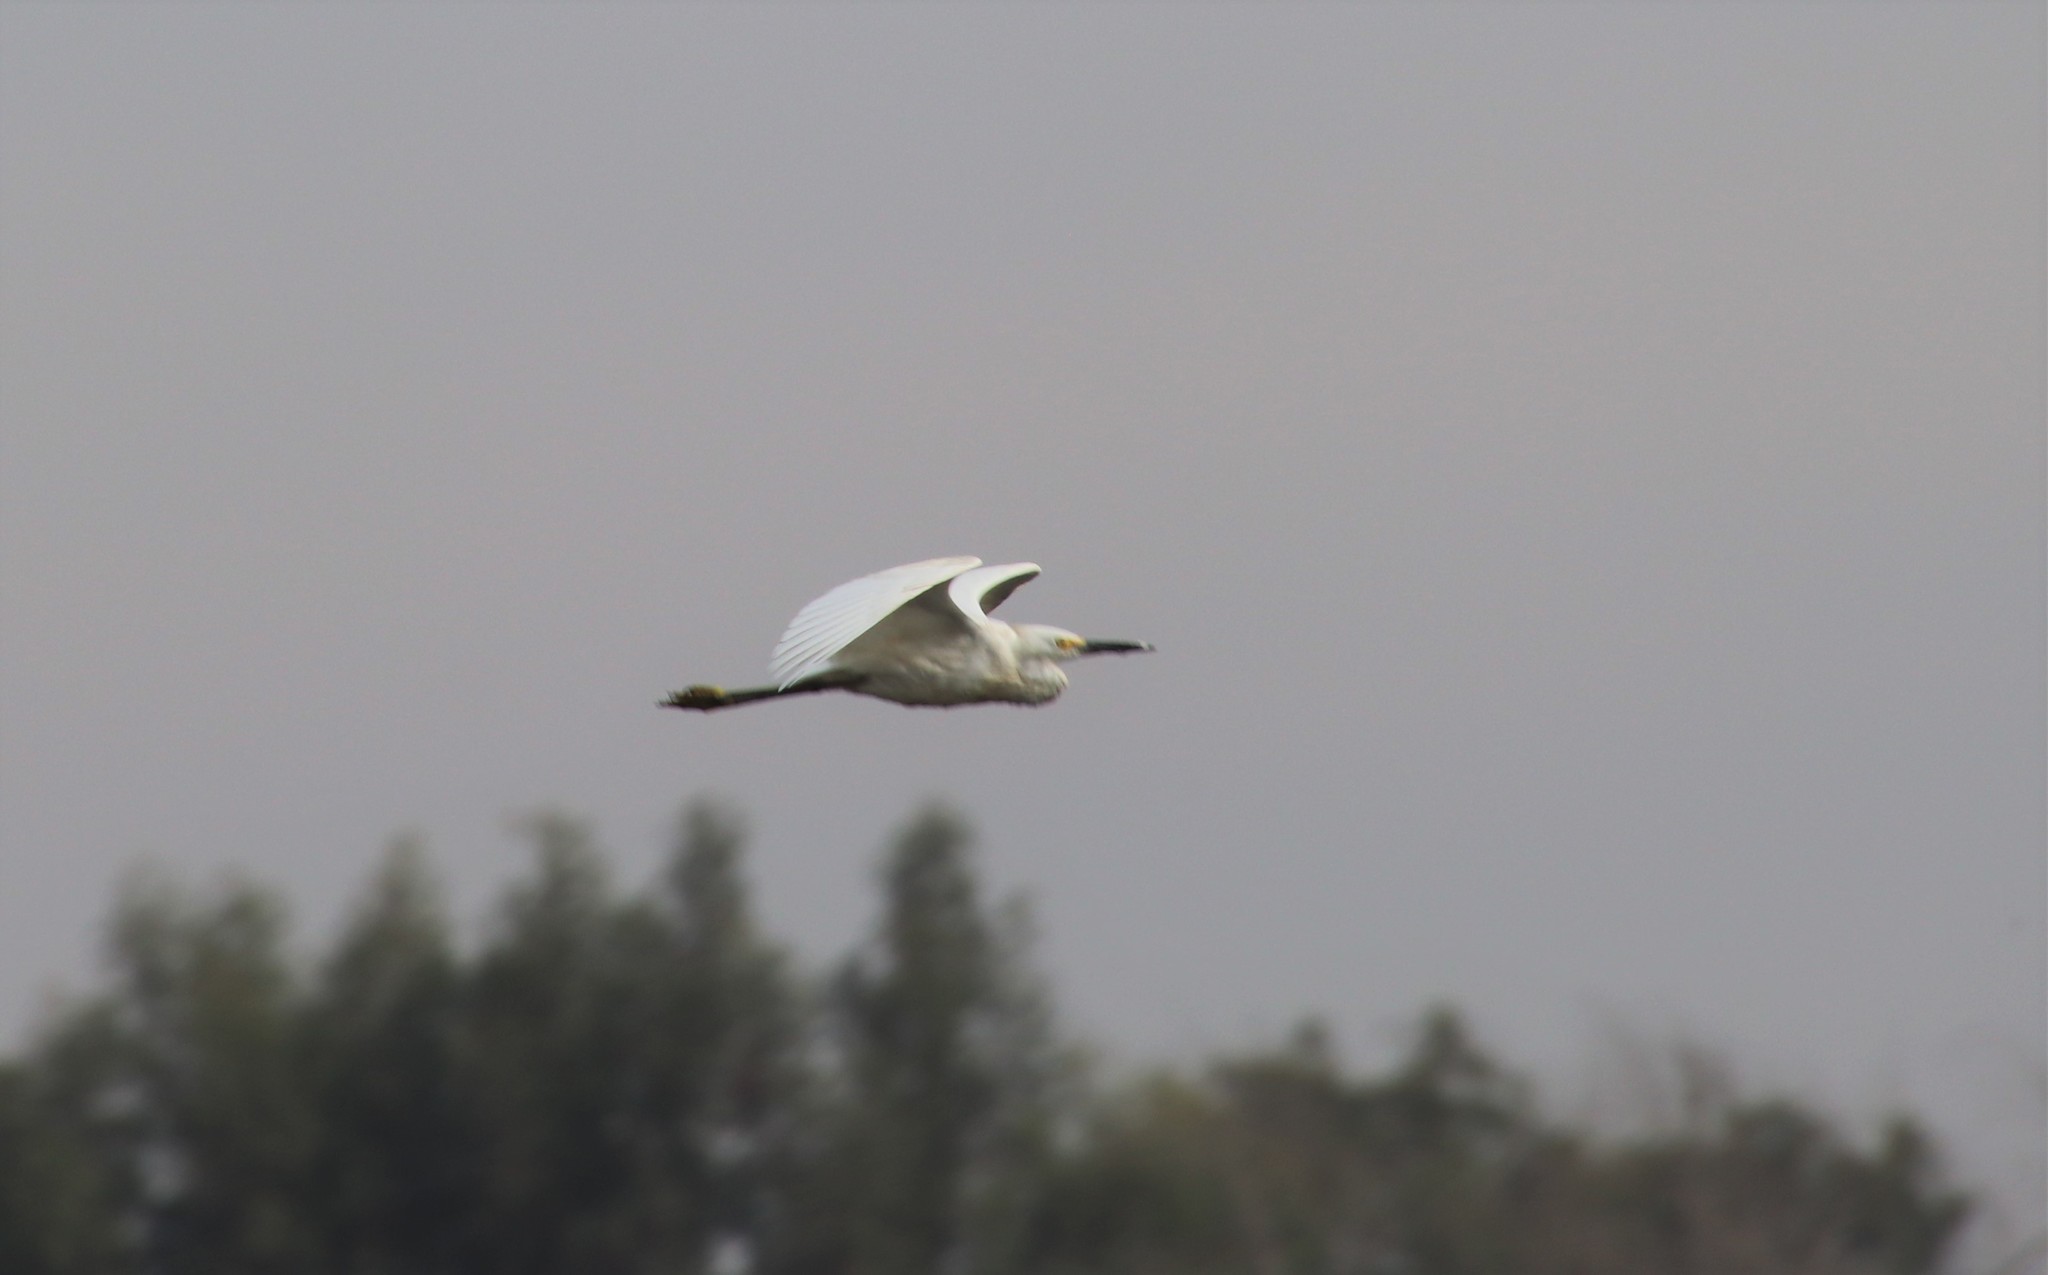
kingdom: Animalia
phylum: Chordata
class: Aves
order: Pelecaniformes
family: Ardeidae
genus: Egretta
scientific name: Egretta thula
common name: Snowy egret
